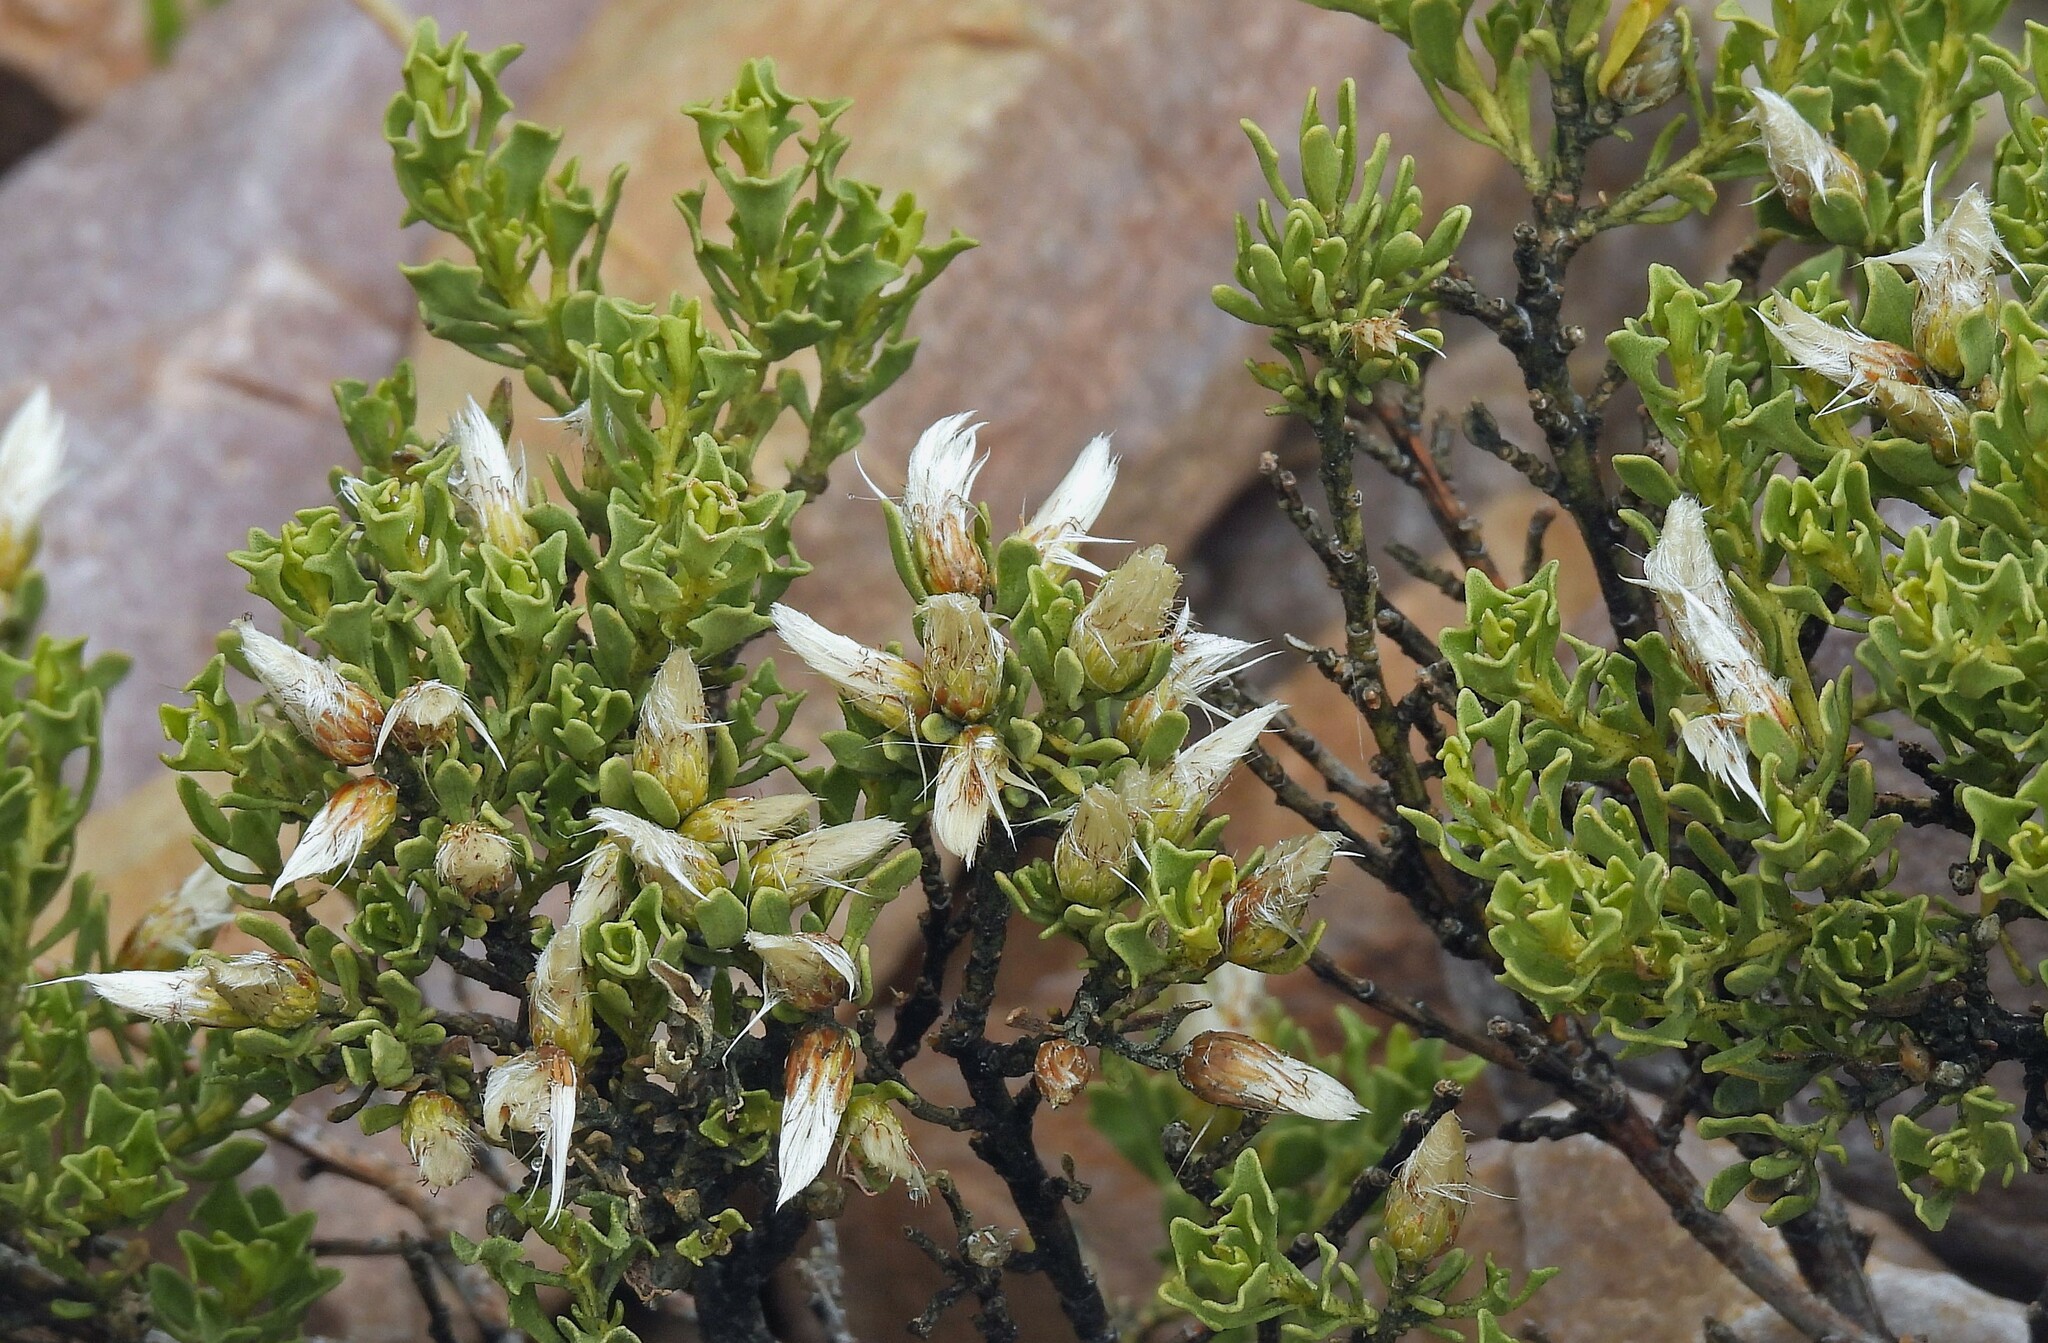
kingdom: Plantae
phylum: Tracheophyta
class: Magnoliopsida
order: Asterales
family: Asteraceae
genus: Baccharis
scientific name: Baccharis tola
